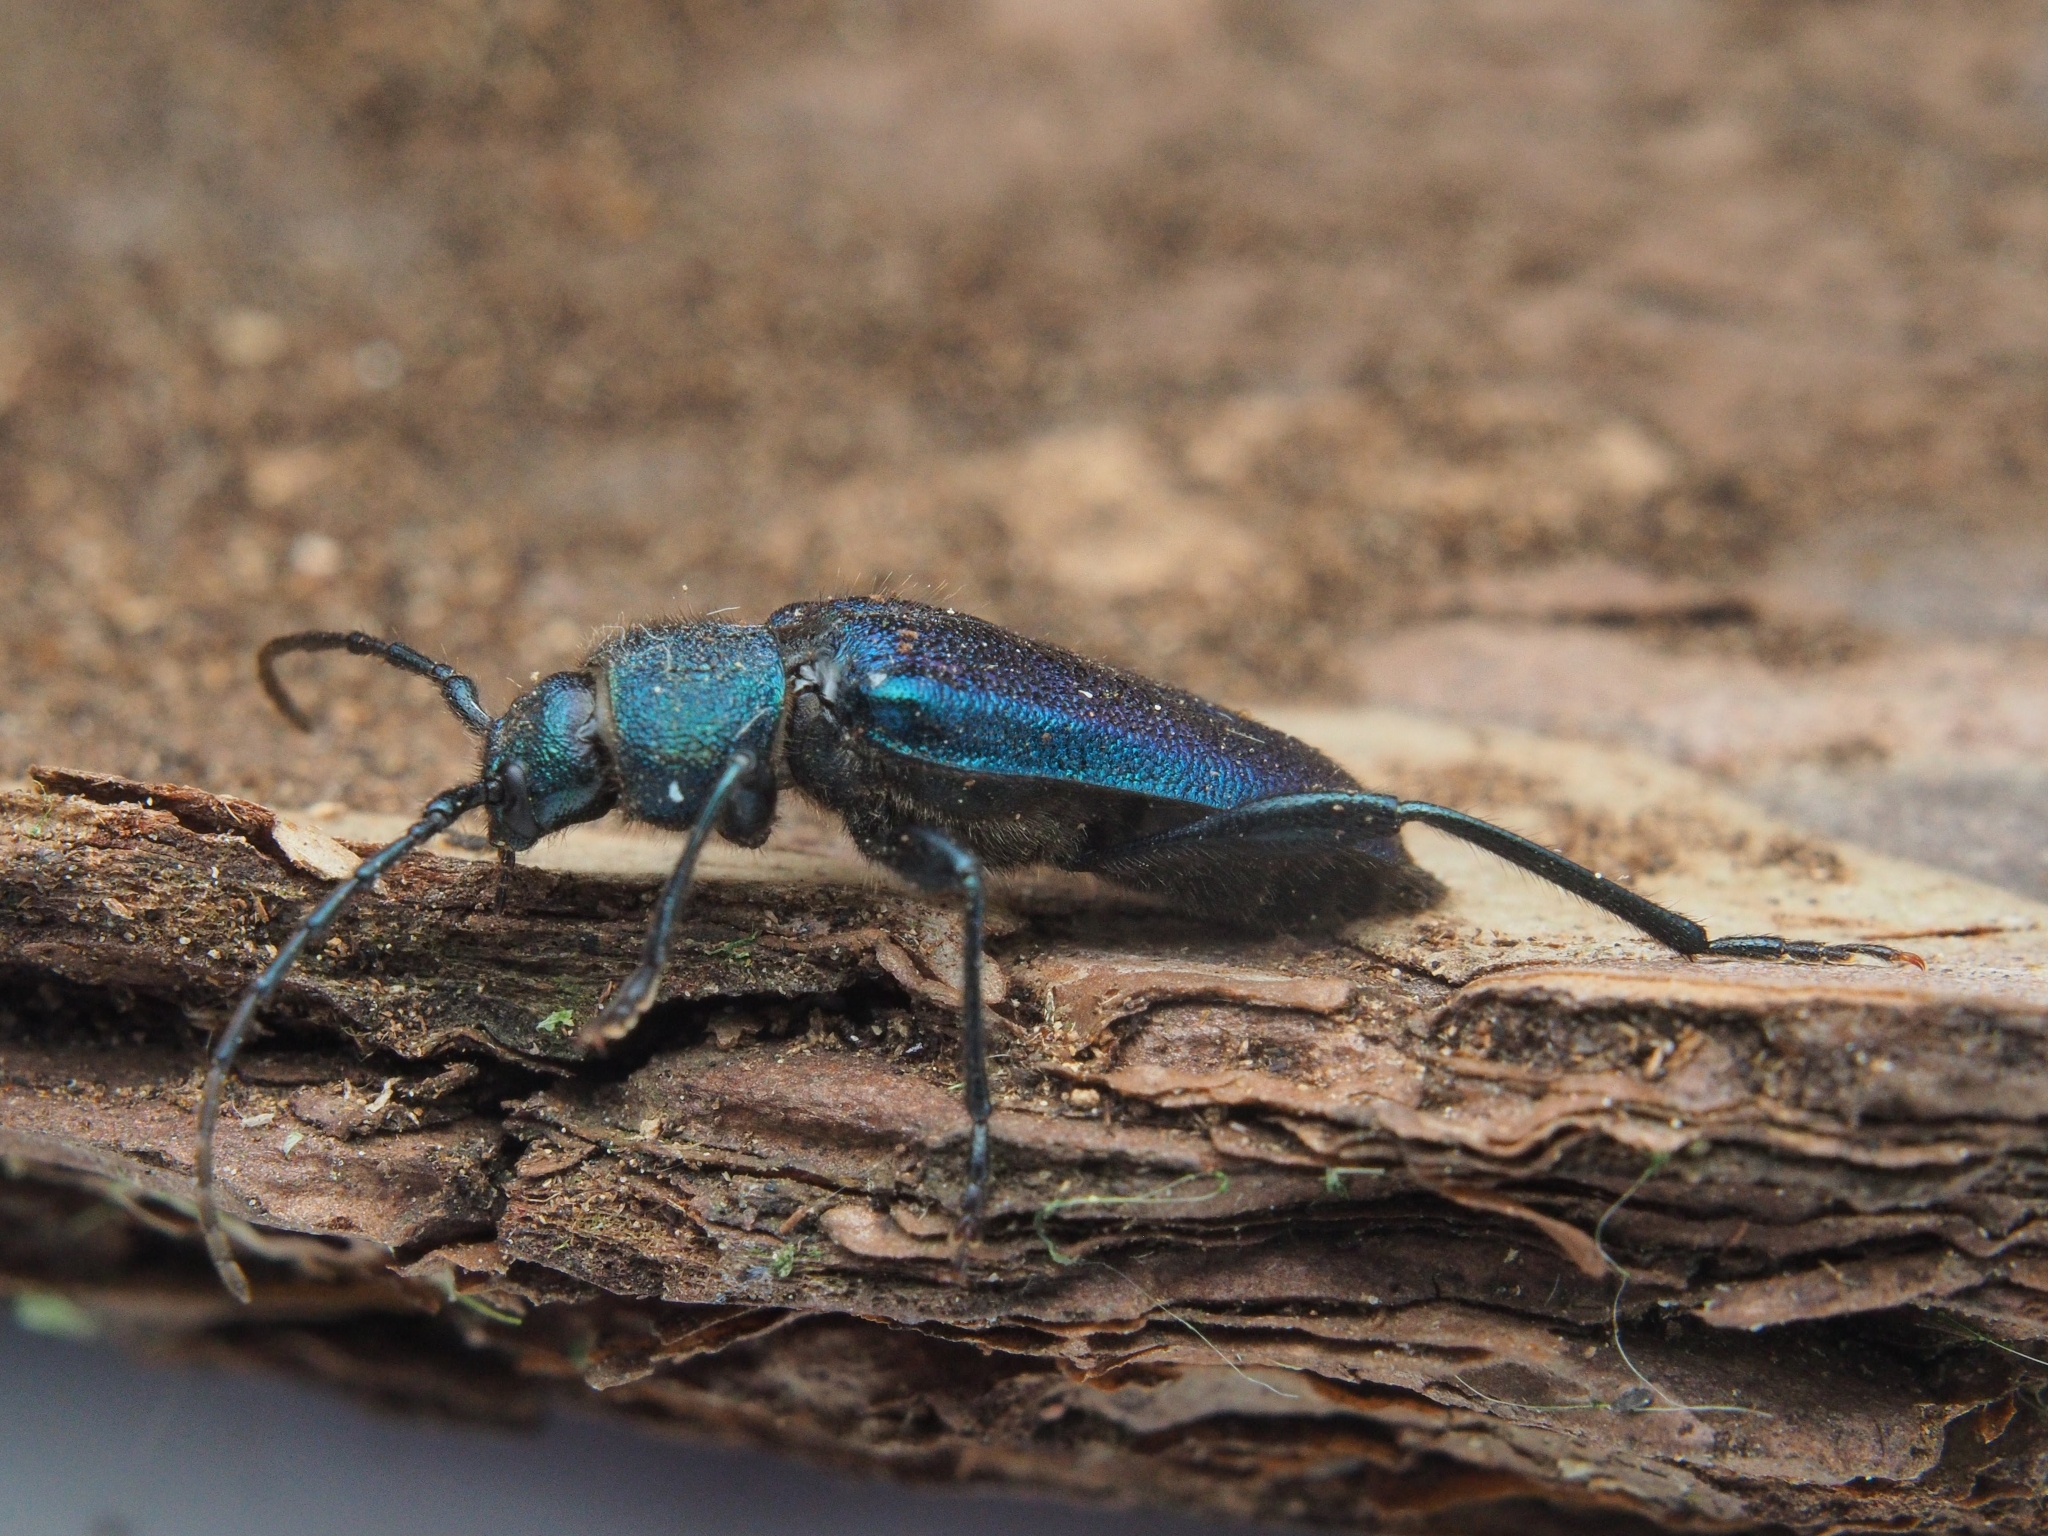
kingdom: Animalia
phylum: Arthropoda
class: Insecta
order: Coleoptera
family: Cerambycidae
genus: Callidium
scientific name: Callidium violaceum
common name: Violet tanbark beetle
